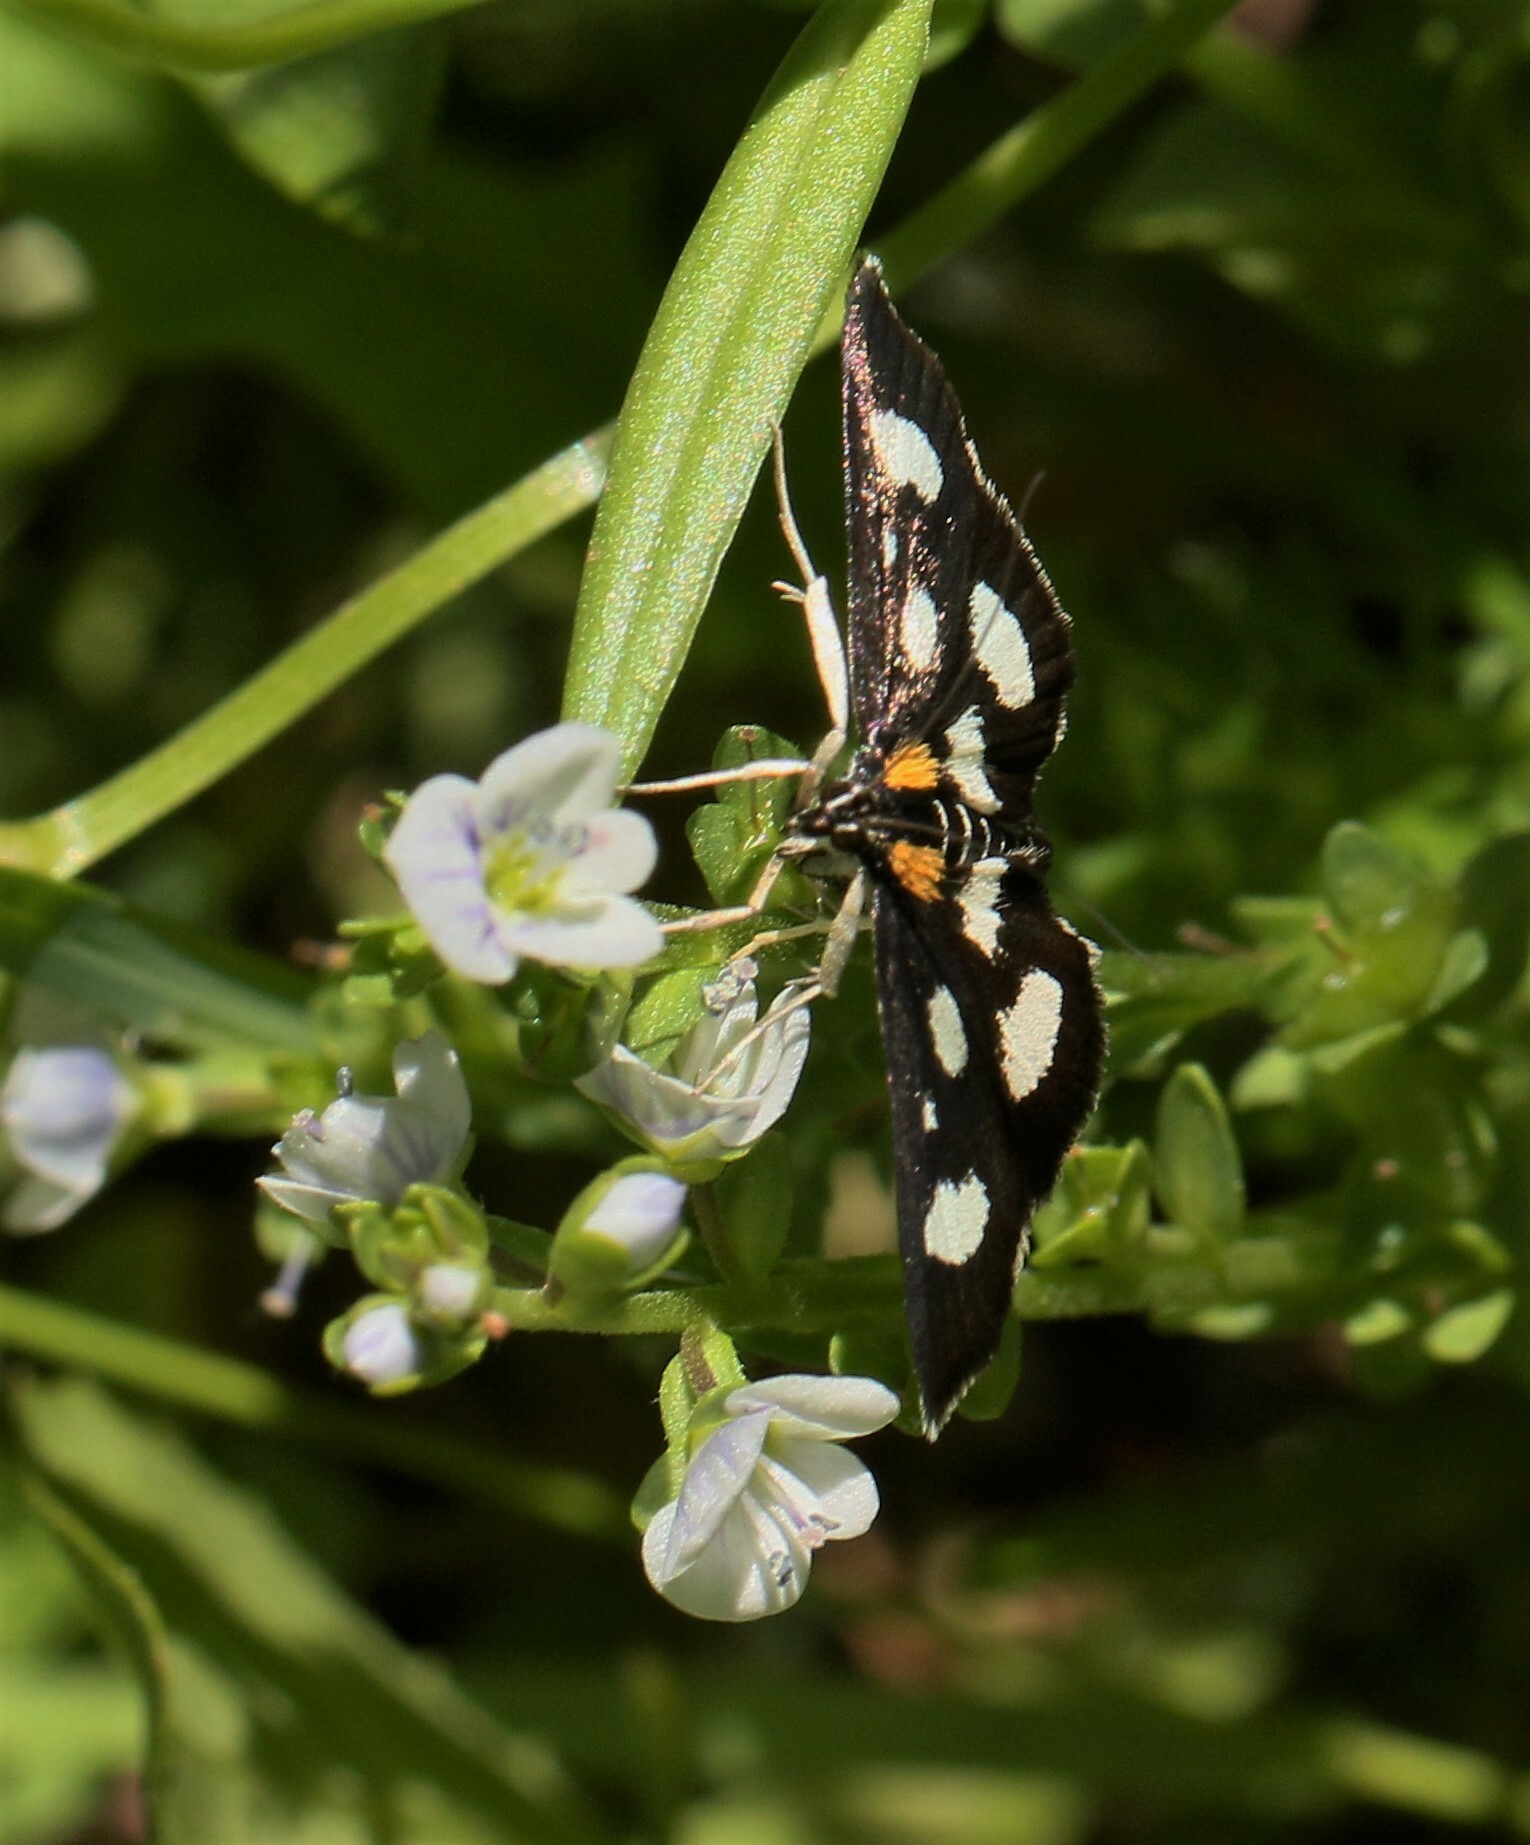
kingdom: Animalia
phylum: Arthropoda
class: Insecta
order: Lepidoptera
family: Crambidae
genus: Anania
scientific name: Anania funebris
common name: White-spotted sable moth
